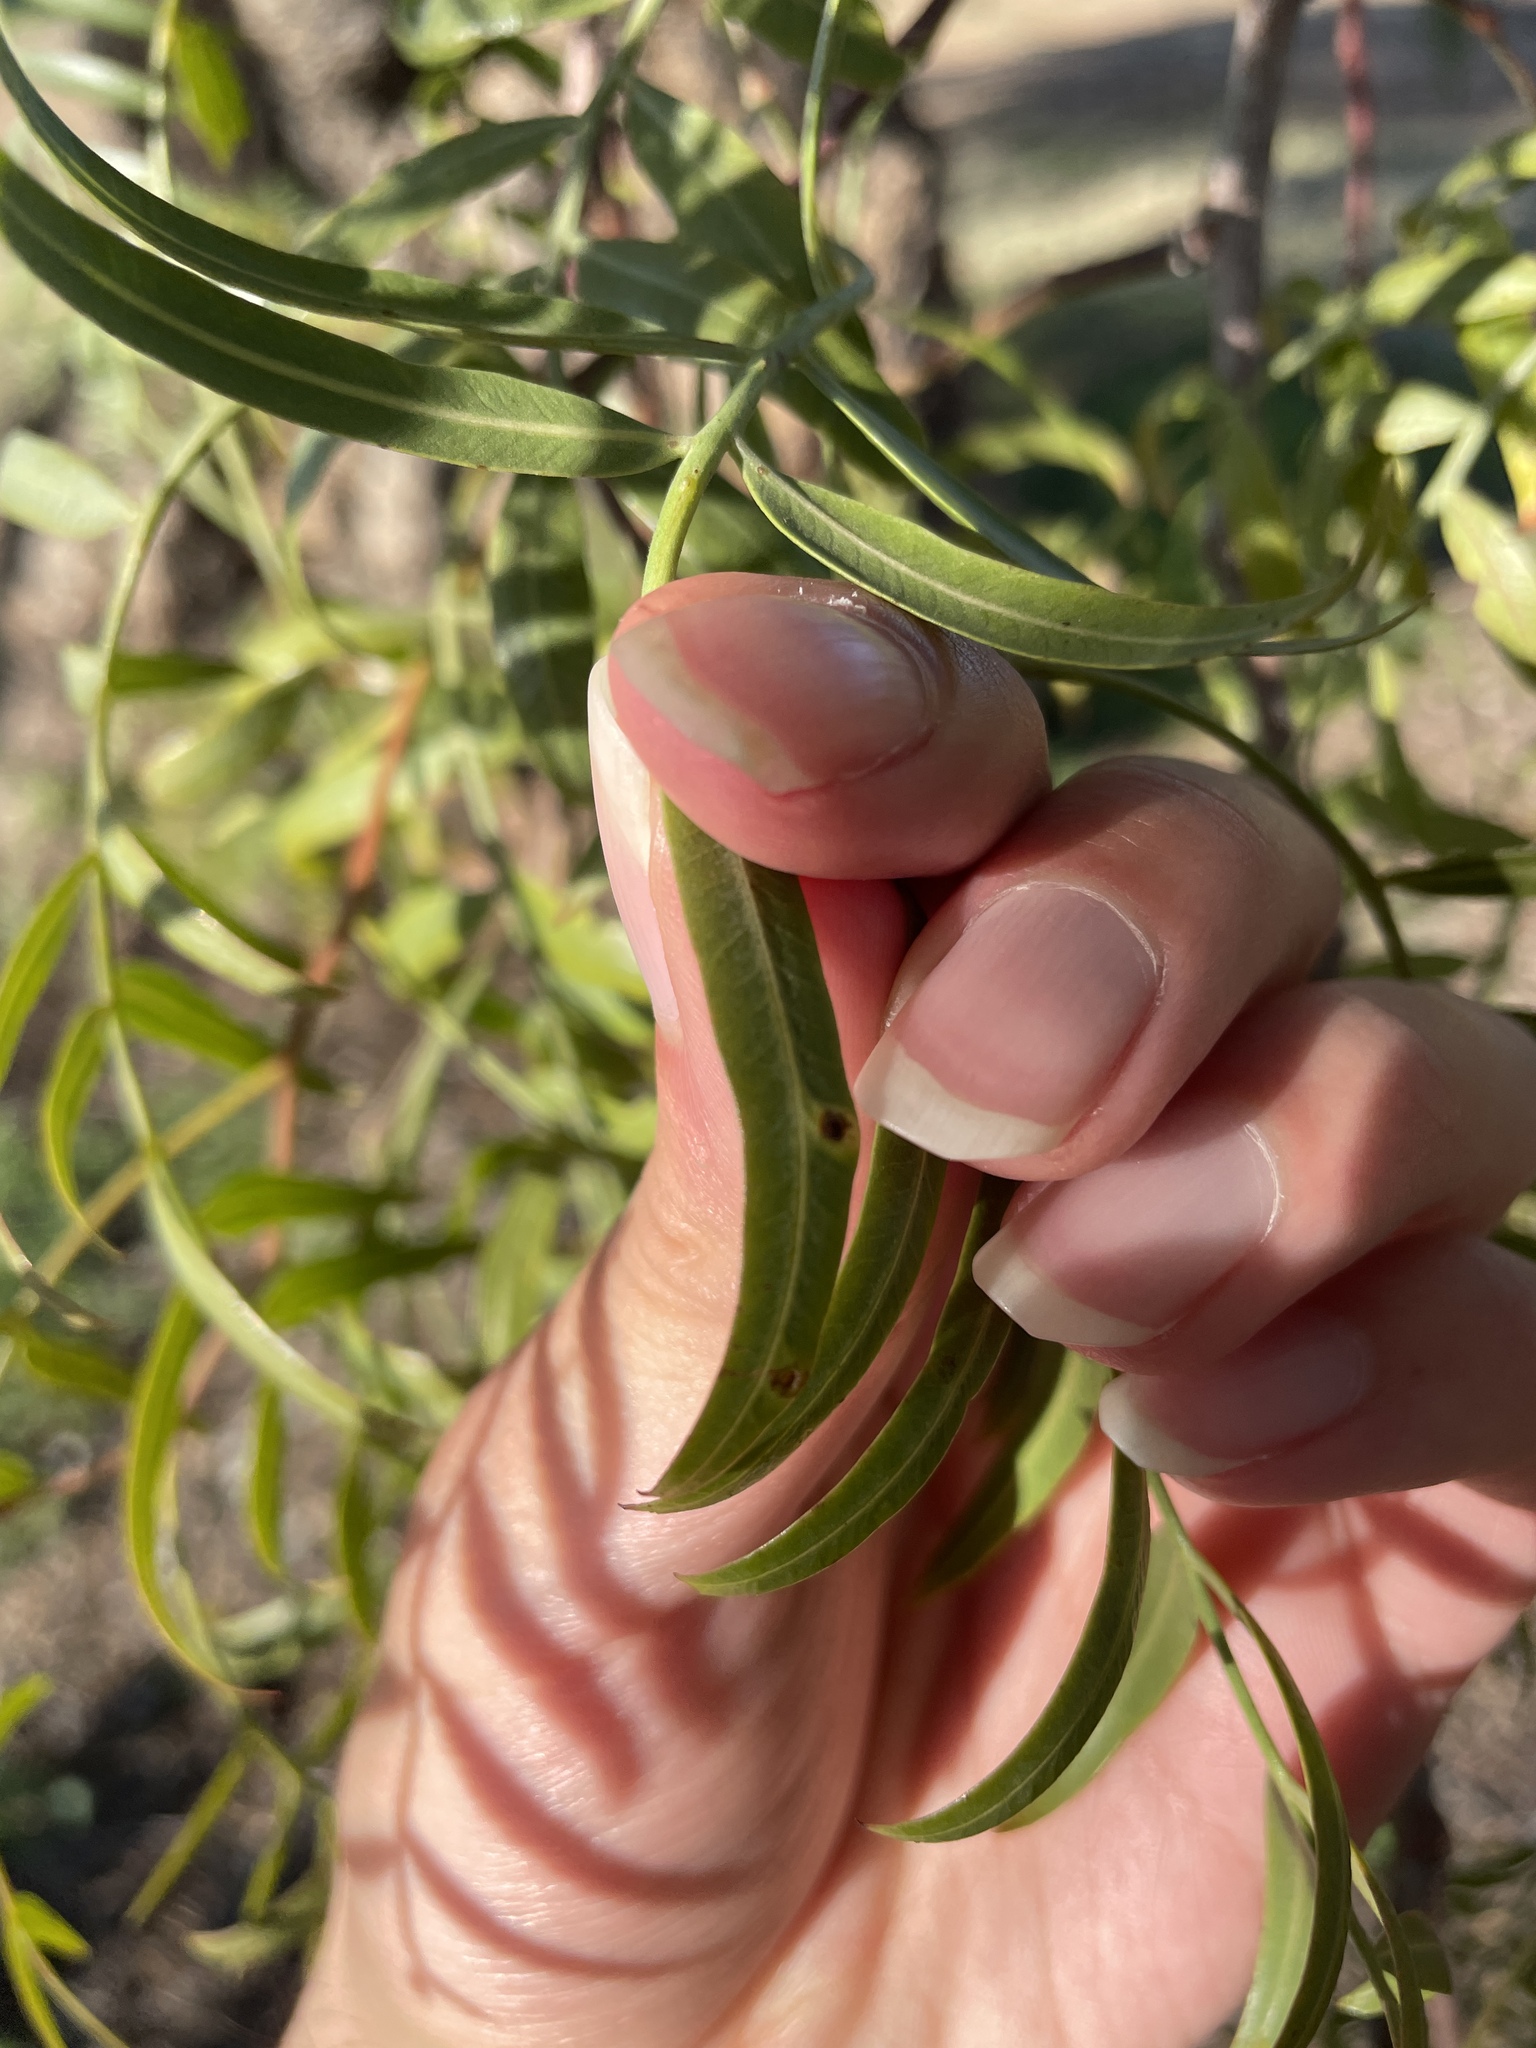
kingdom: Animalia
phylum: Arthropoda
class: Insecta
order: Hemiptera
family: Calophyidae
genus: Calophya
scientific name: Calophya schini
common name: Pepper tree psyllid
